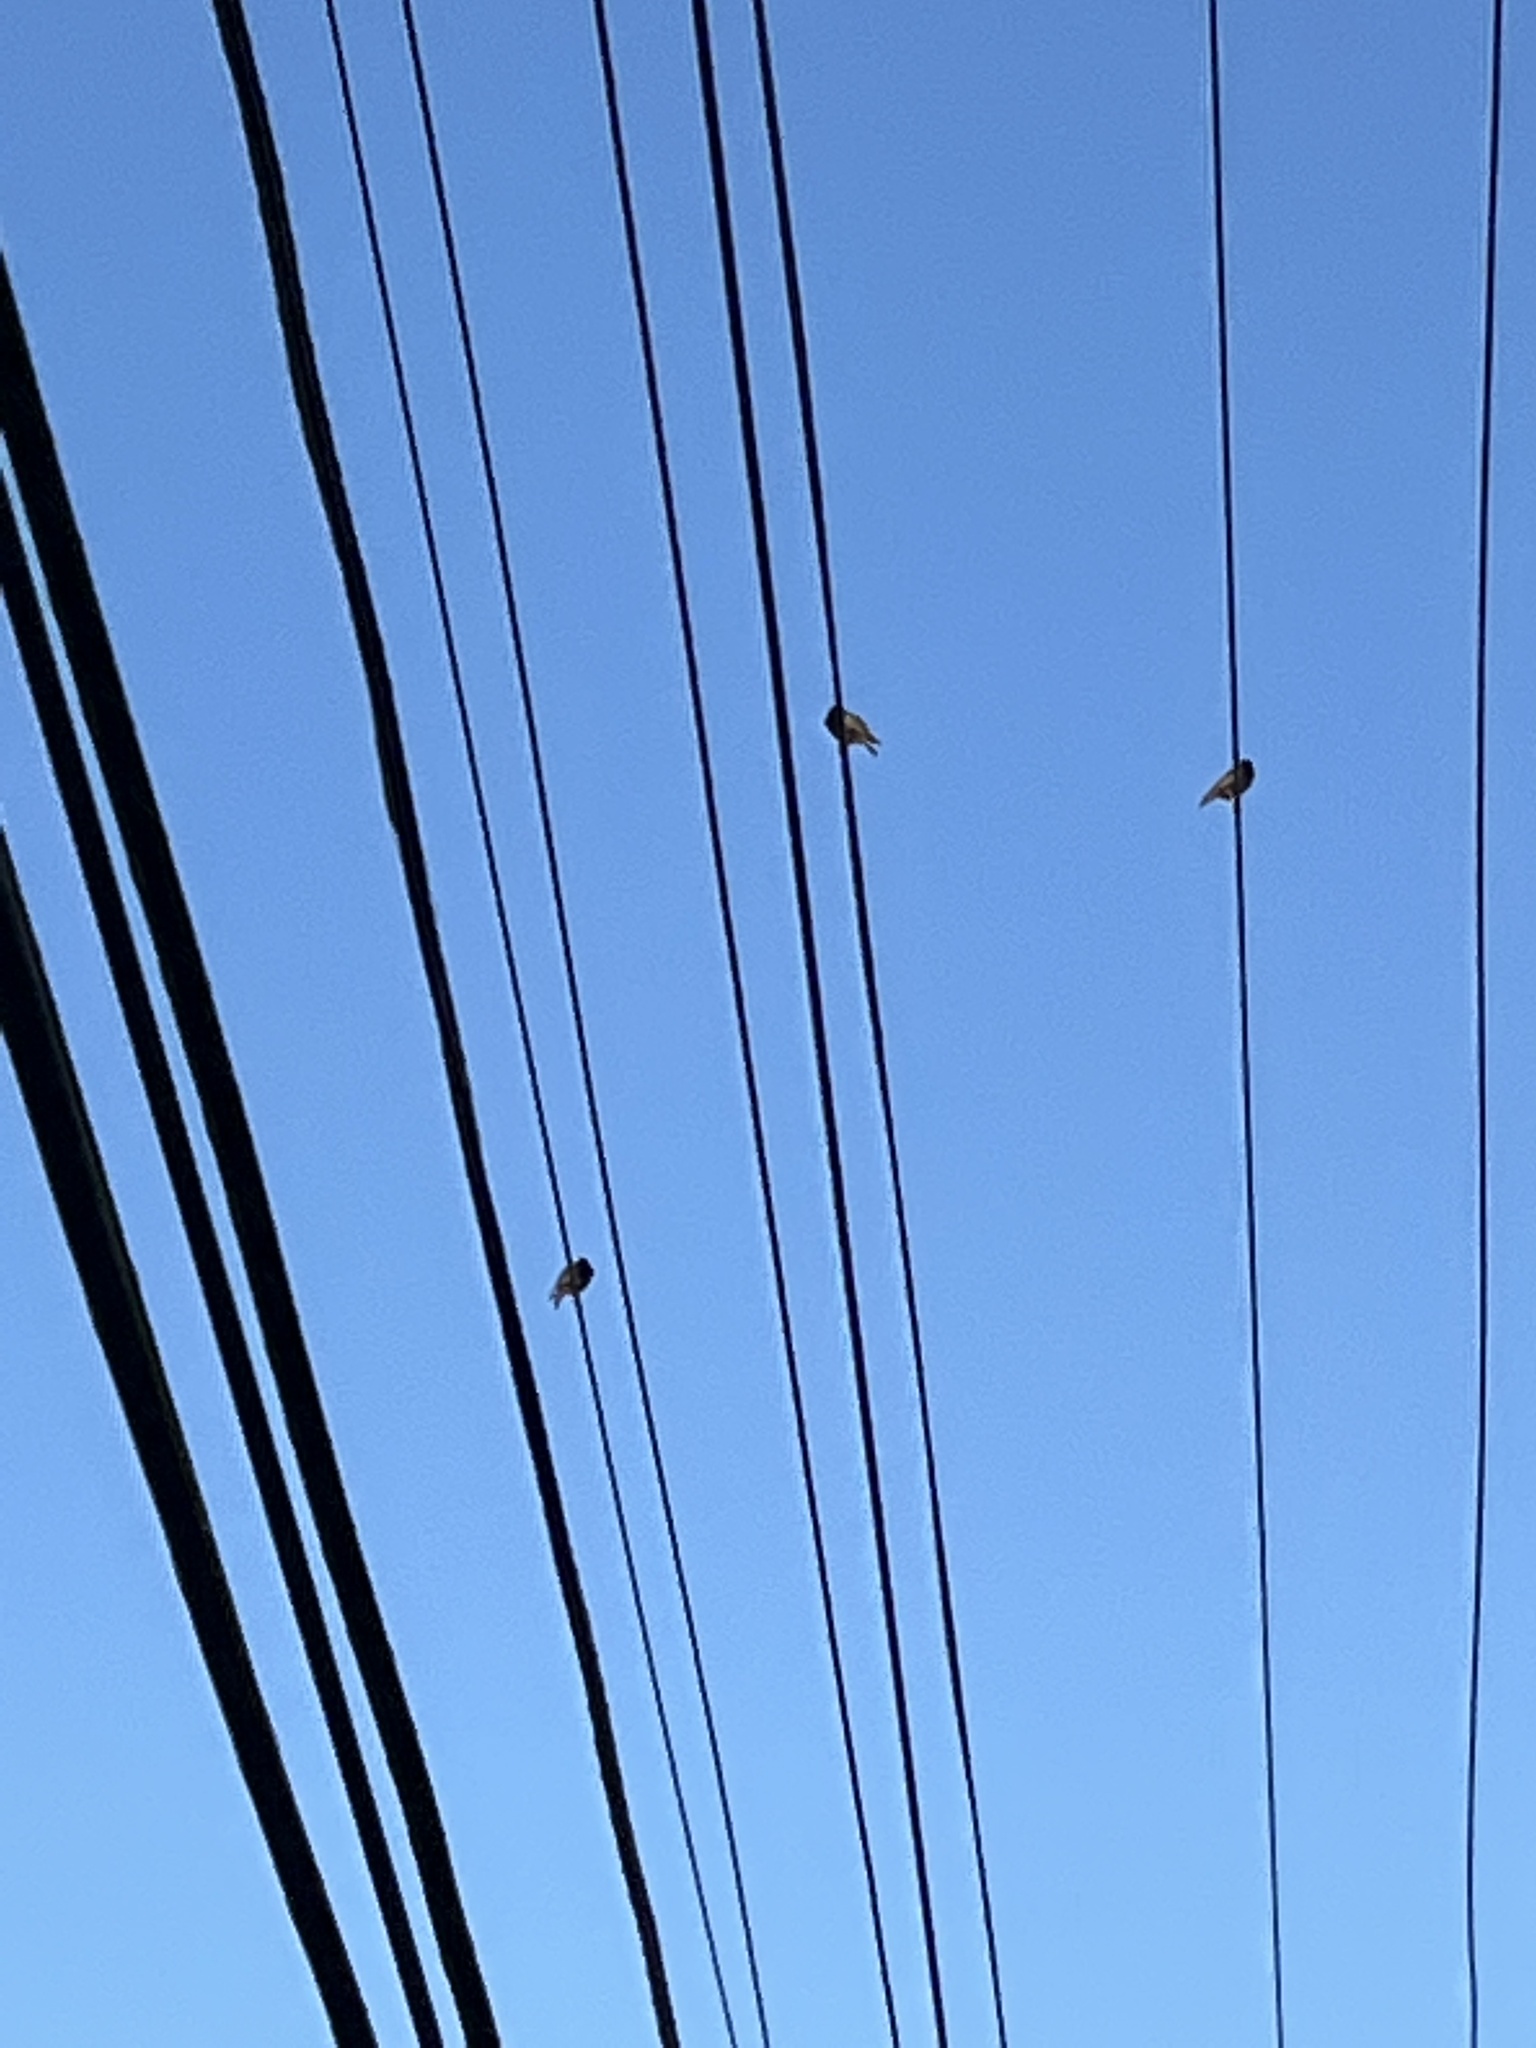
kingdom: Animalia
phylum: Chordata
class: Aves
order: Passeriformes
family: Sturnidae
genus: Sturnus
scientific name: Sturnus vulgaris
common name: Common starling
